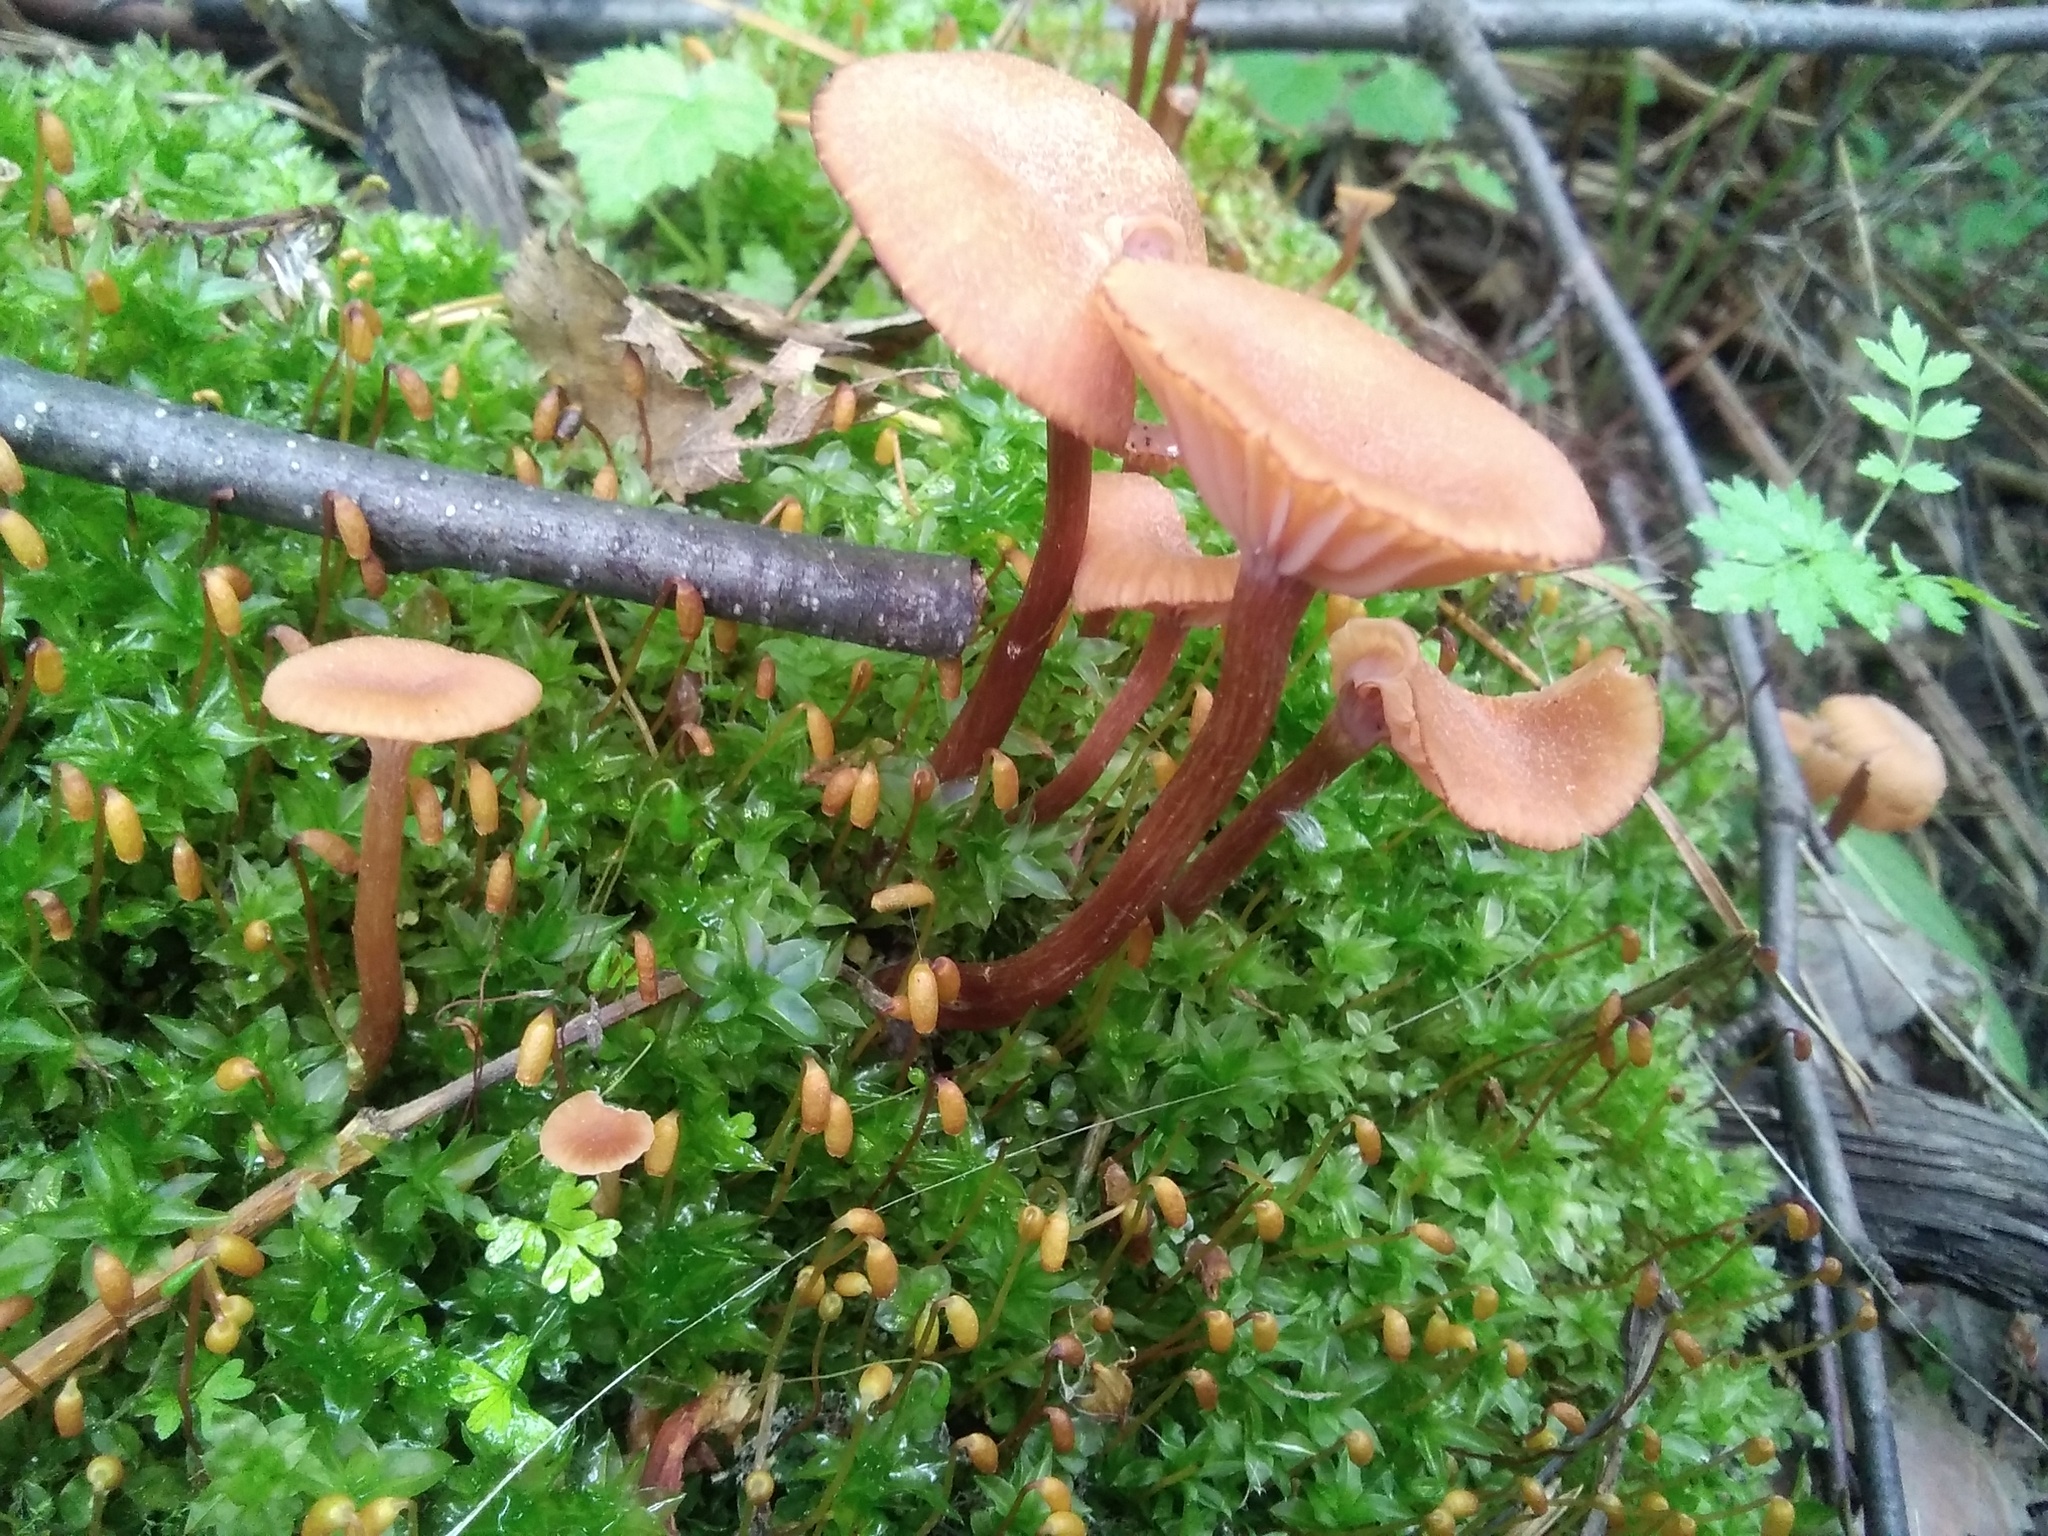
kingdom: Fungi
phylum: Basidiomycota
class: Agaricomycetes
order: Agaricales
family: Hydnangiaceae
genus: Laccaria
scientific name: Laccaria bicolor
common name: Bicoloured deceiver
